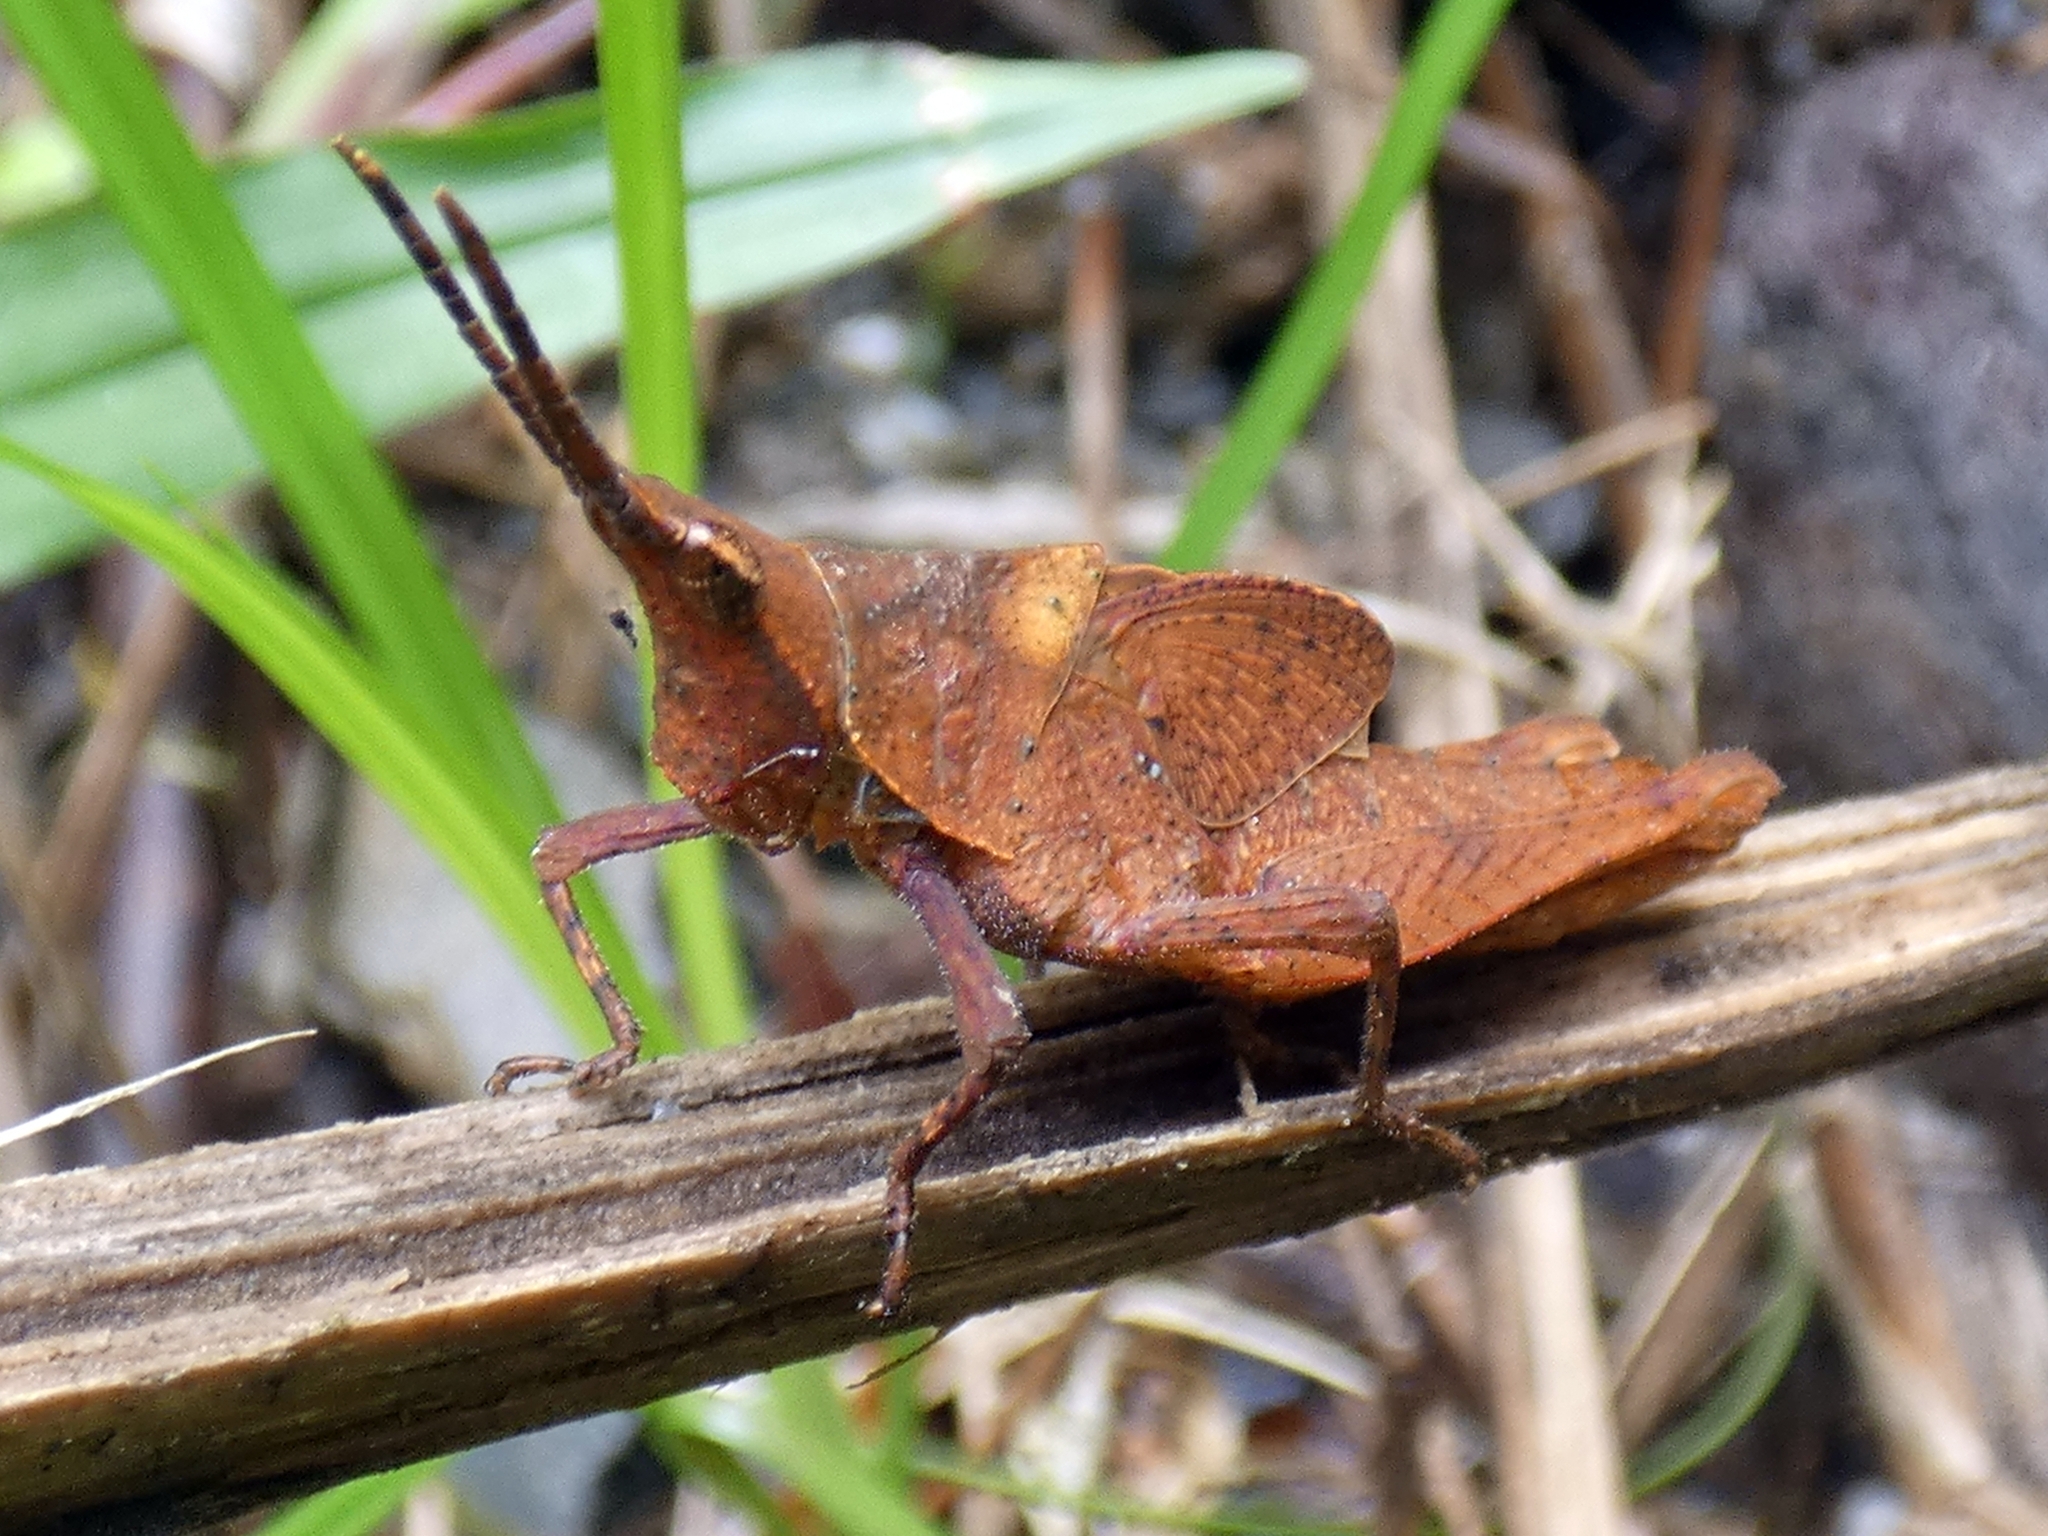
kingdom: Animalia
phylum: Arthropoda
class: Insecta
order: Orthoptera
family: Pyrgomorphidae
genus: Desmoptera
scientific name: Desmoptera truncatipennis
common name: Large forest pyrgomorph
